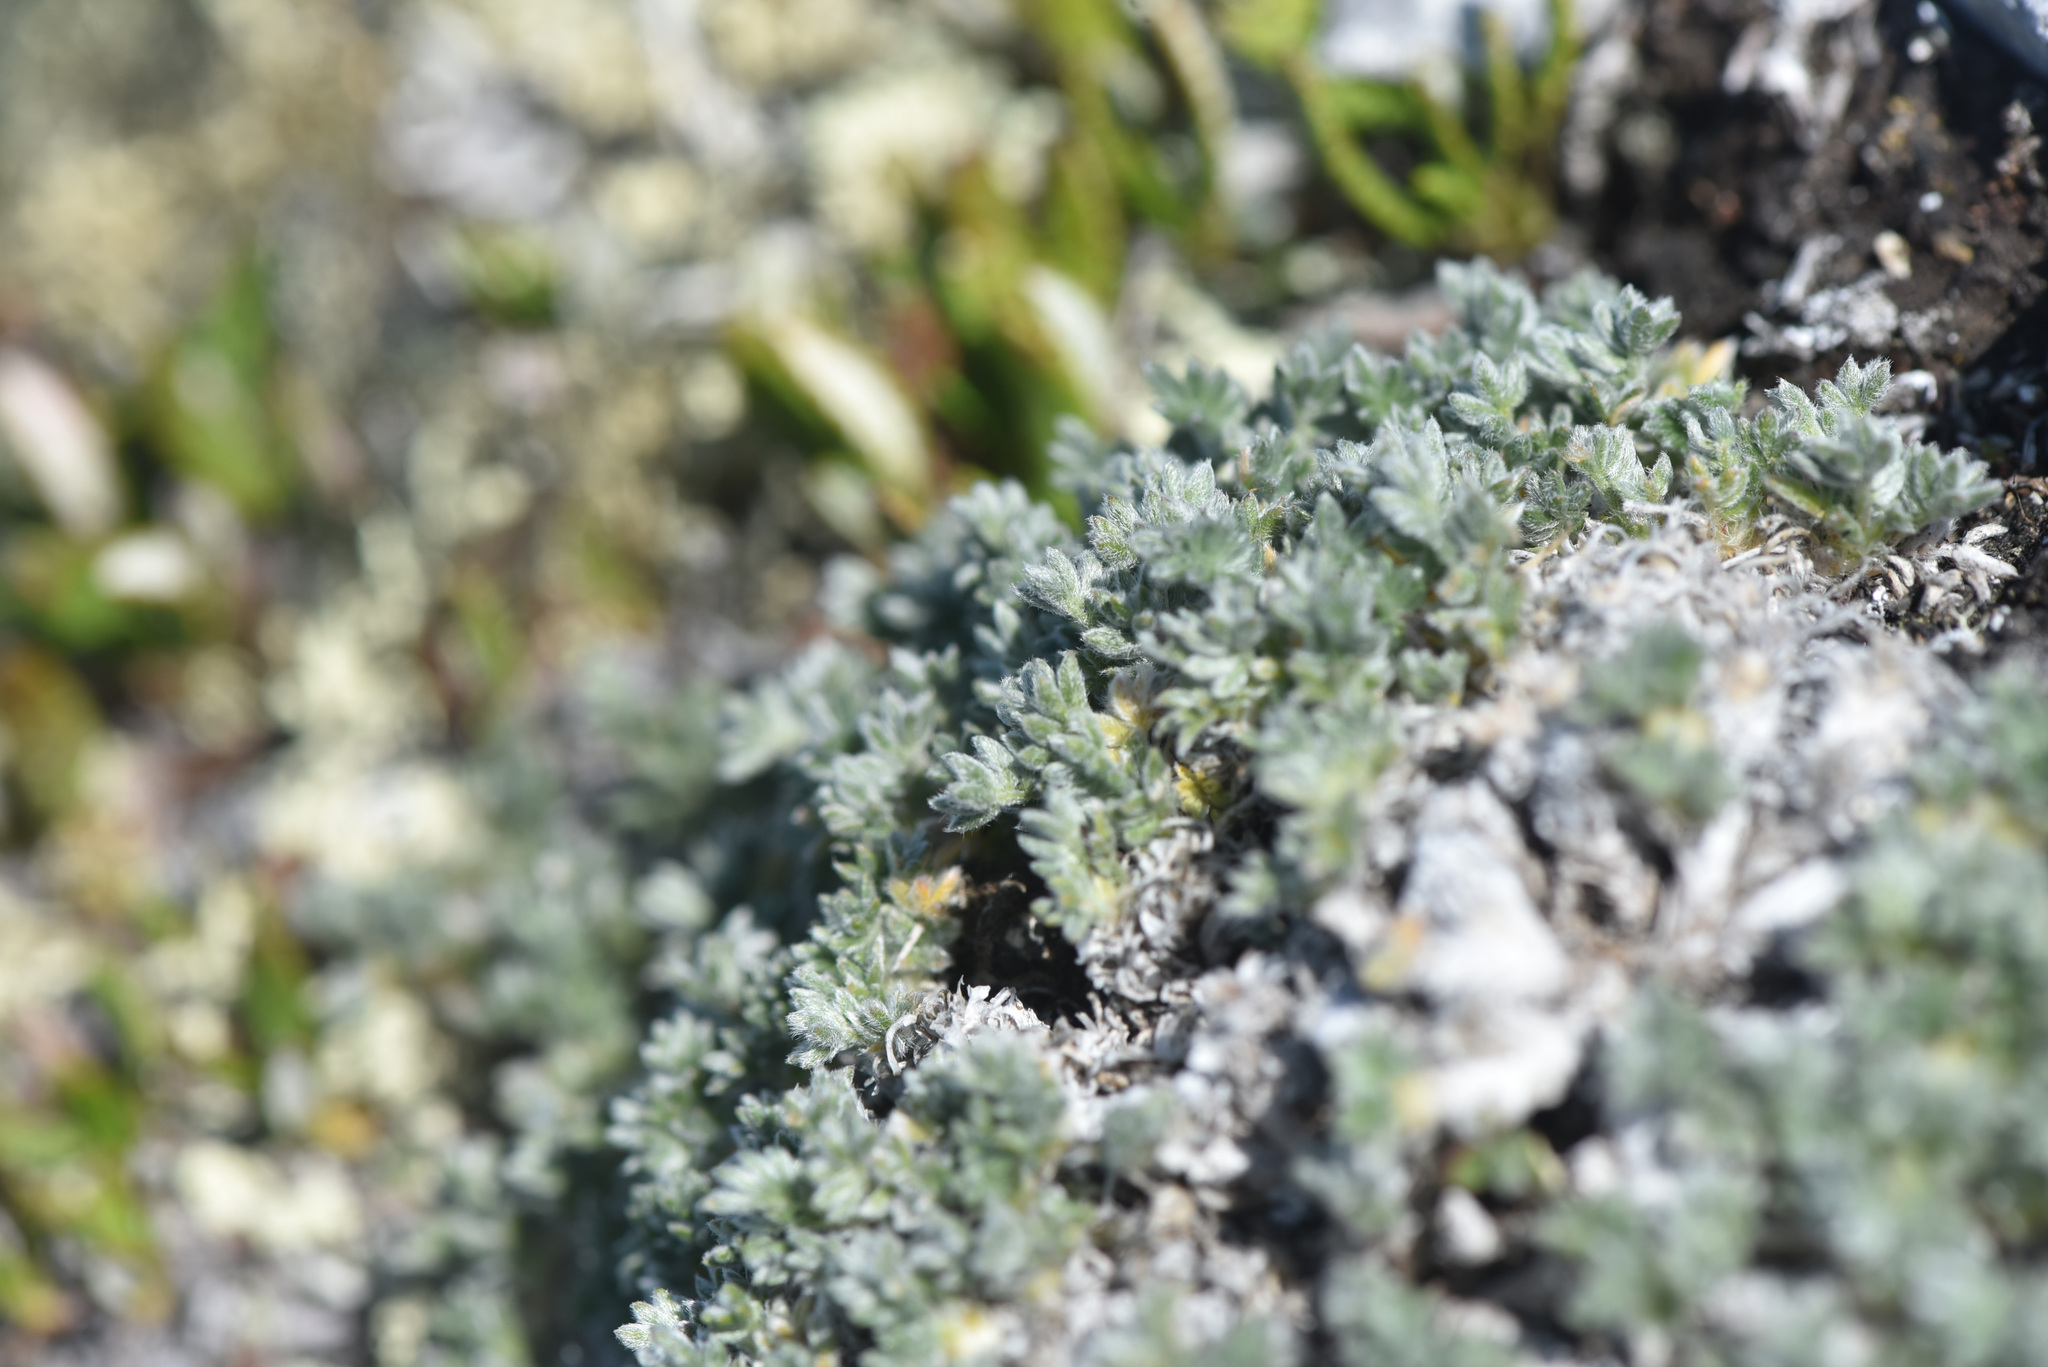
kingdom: Plantae
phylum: Tracheophyta
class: Magnoliopsida
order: Fabales
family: Fabaceae
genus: Oxytropis
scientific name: Oxytropis podocarpa
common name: Gray's oxytrope
